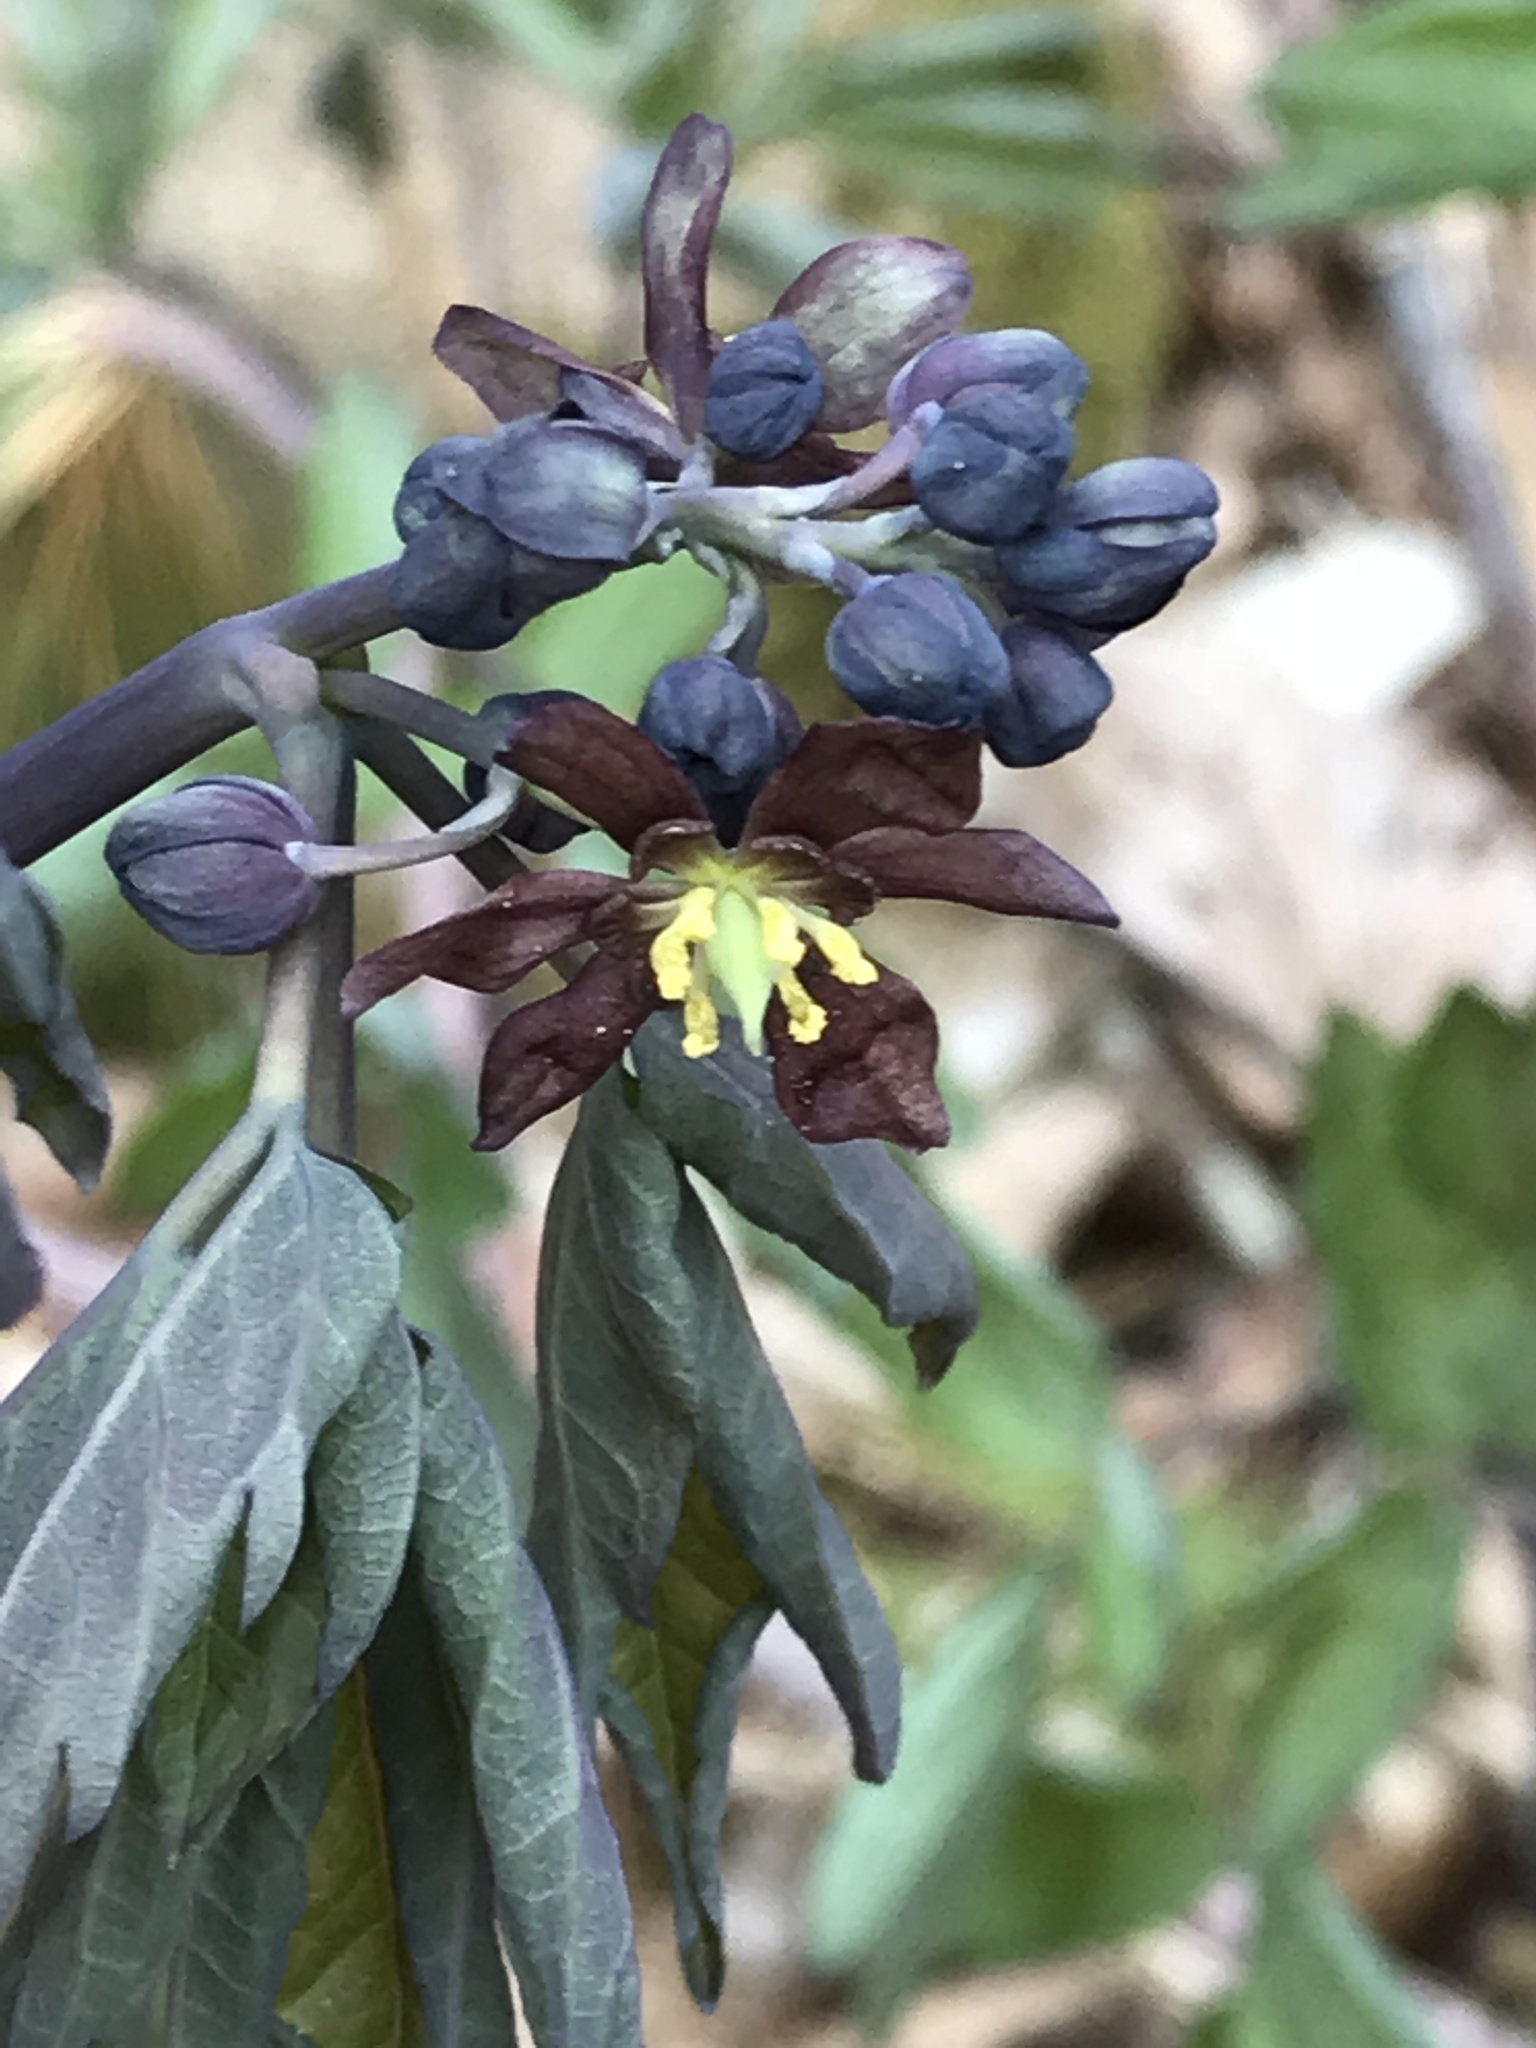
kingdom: Plantae
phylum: Tracheophyta
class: Magnoliopsida
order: Ranunculales
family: Berberidaceae
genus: Caulophyllum
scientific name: Caulophyllum giganteum
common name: Blue cohosh
